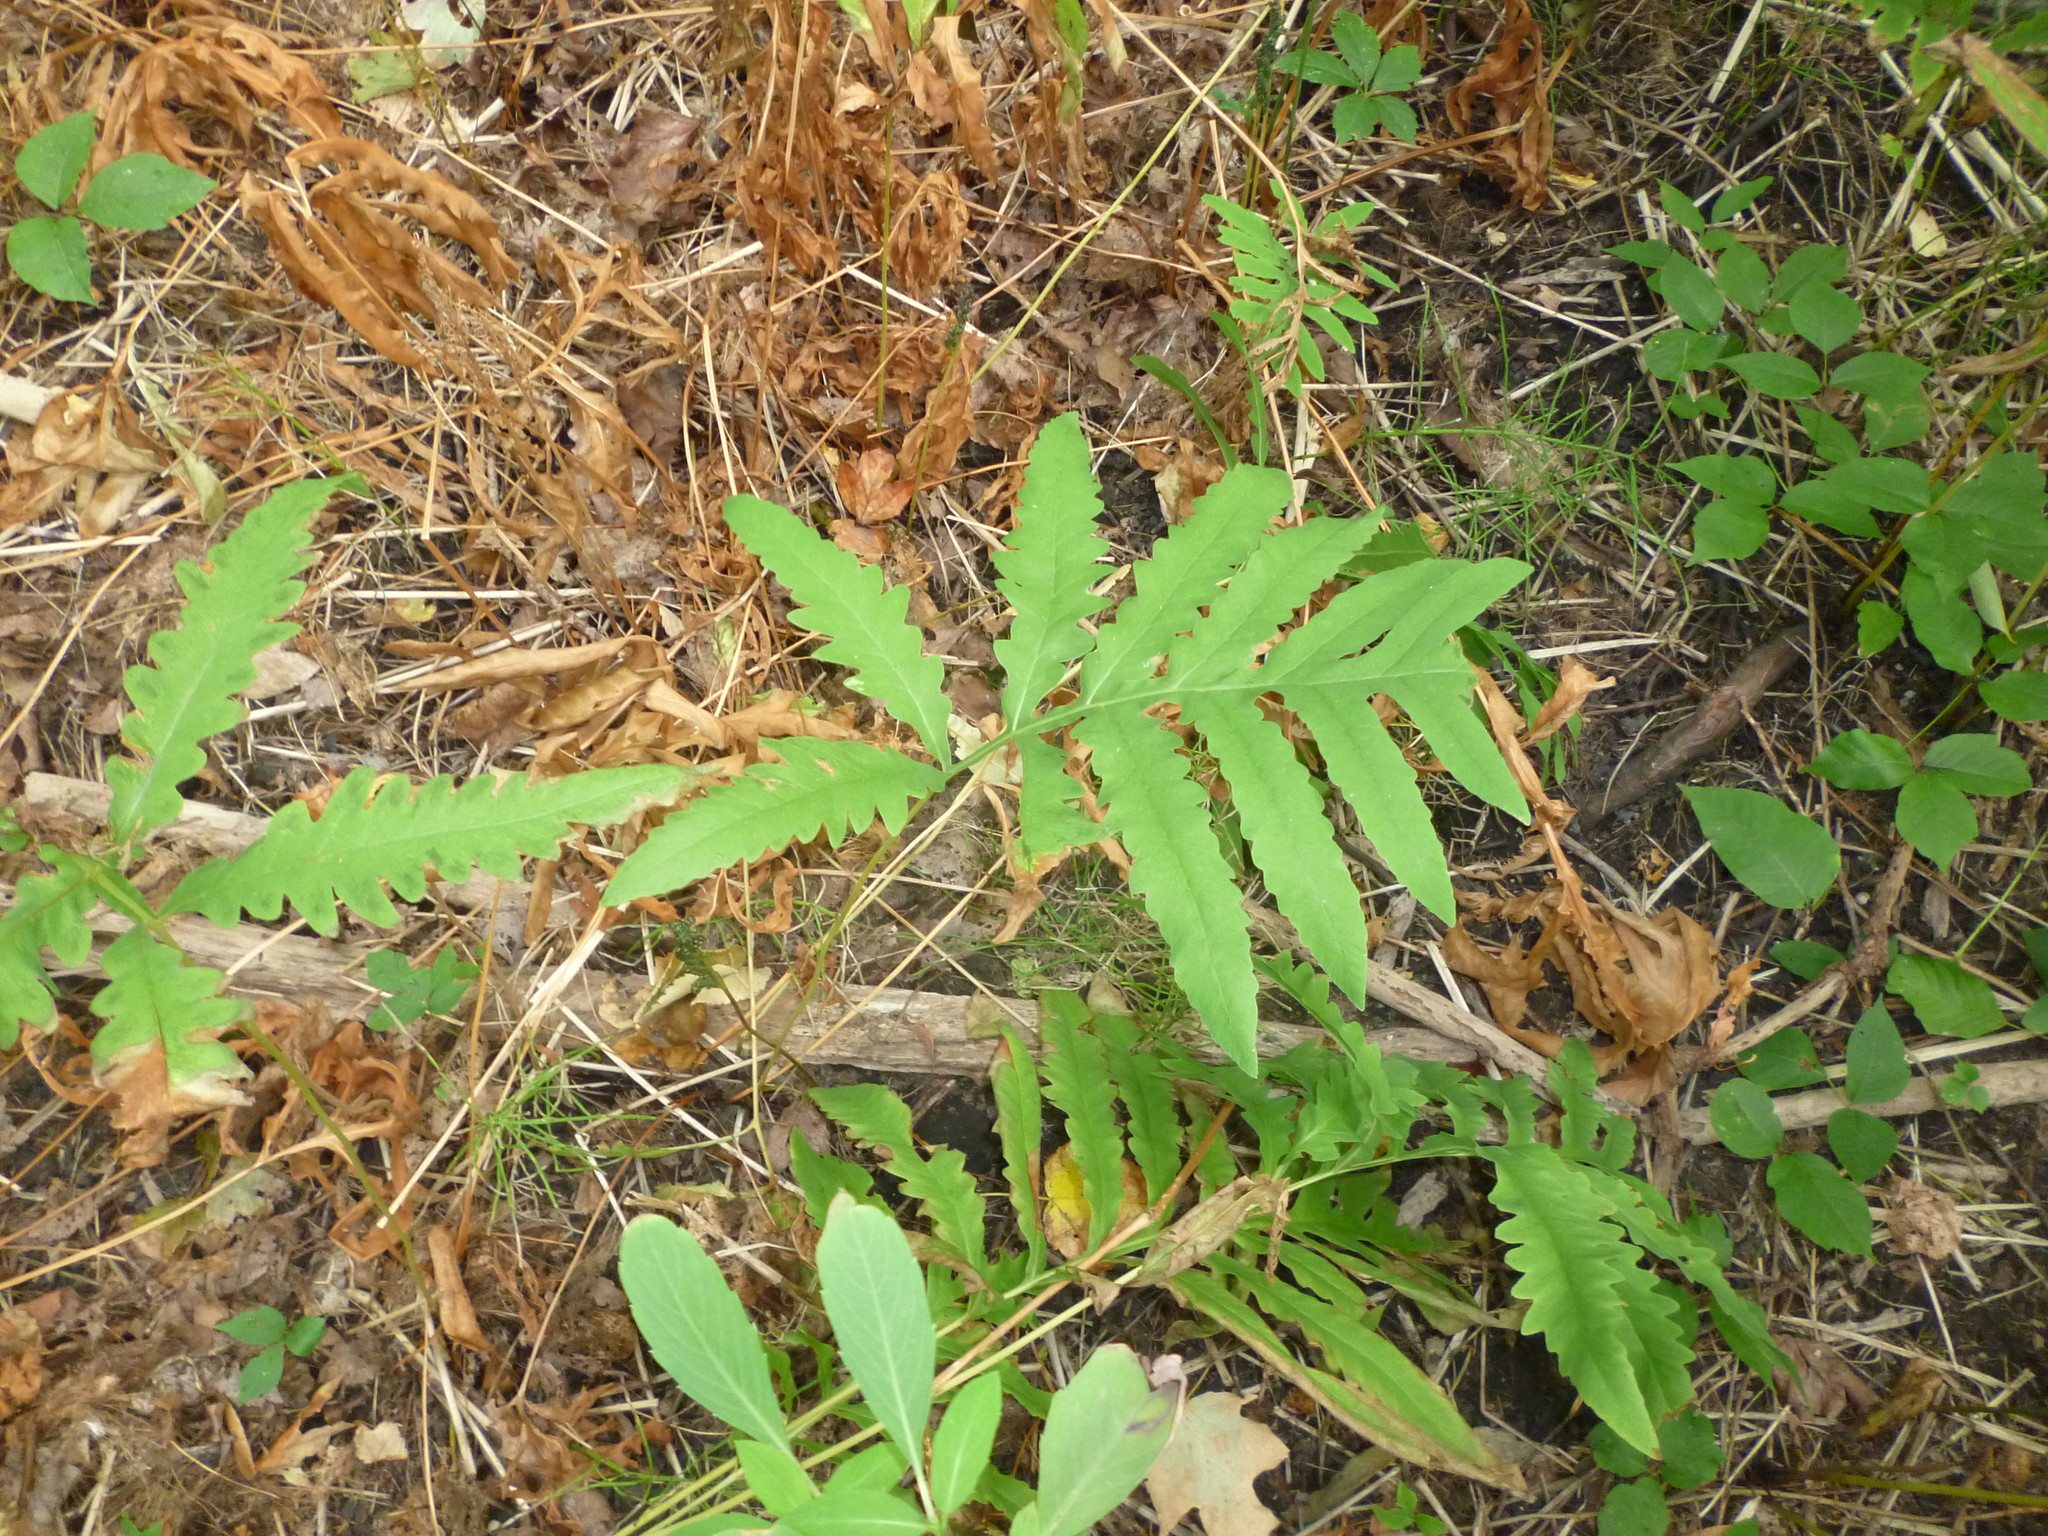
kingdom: Plantae
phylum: Tracheophyta
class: Polypodiopsida
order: Polypodiales
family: Onocleaceae
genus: Onoclea
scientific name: Onoclea sensibilis
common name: Sensitive fern
